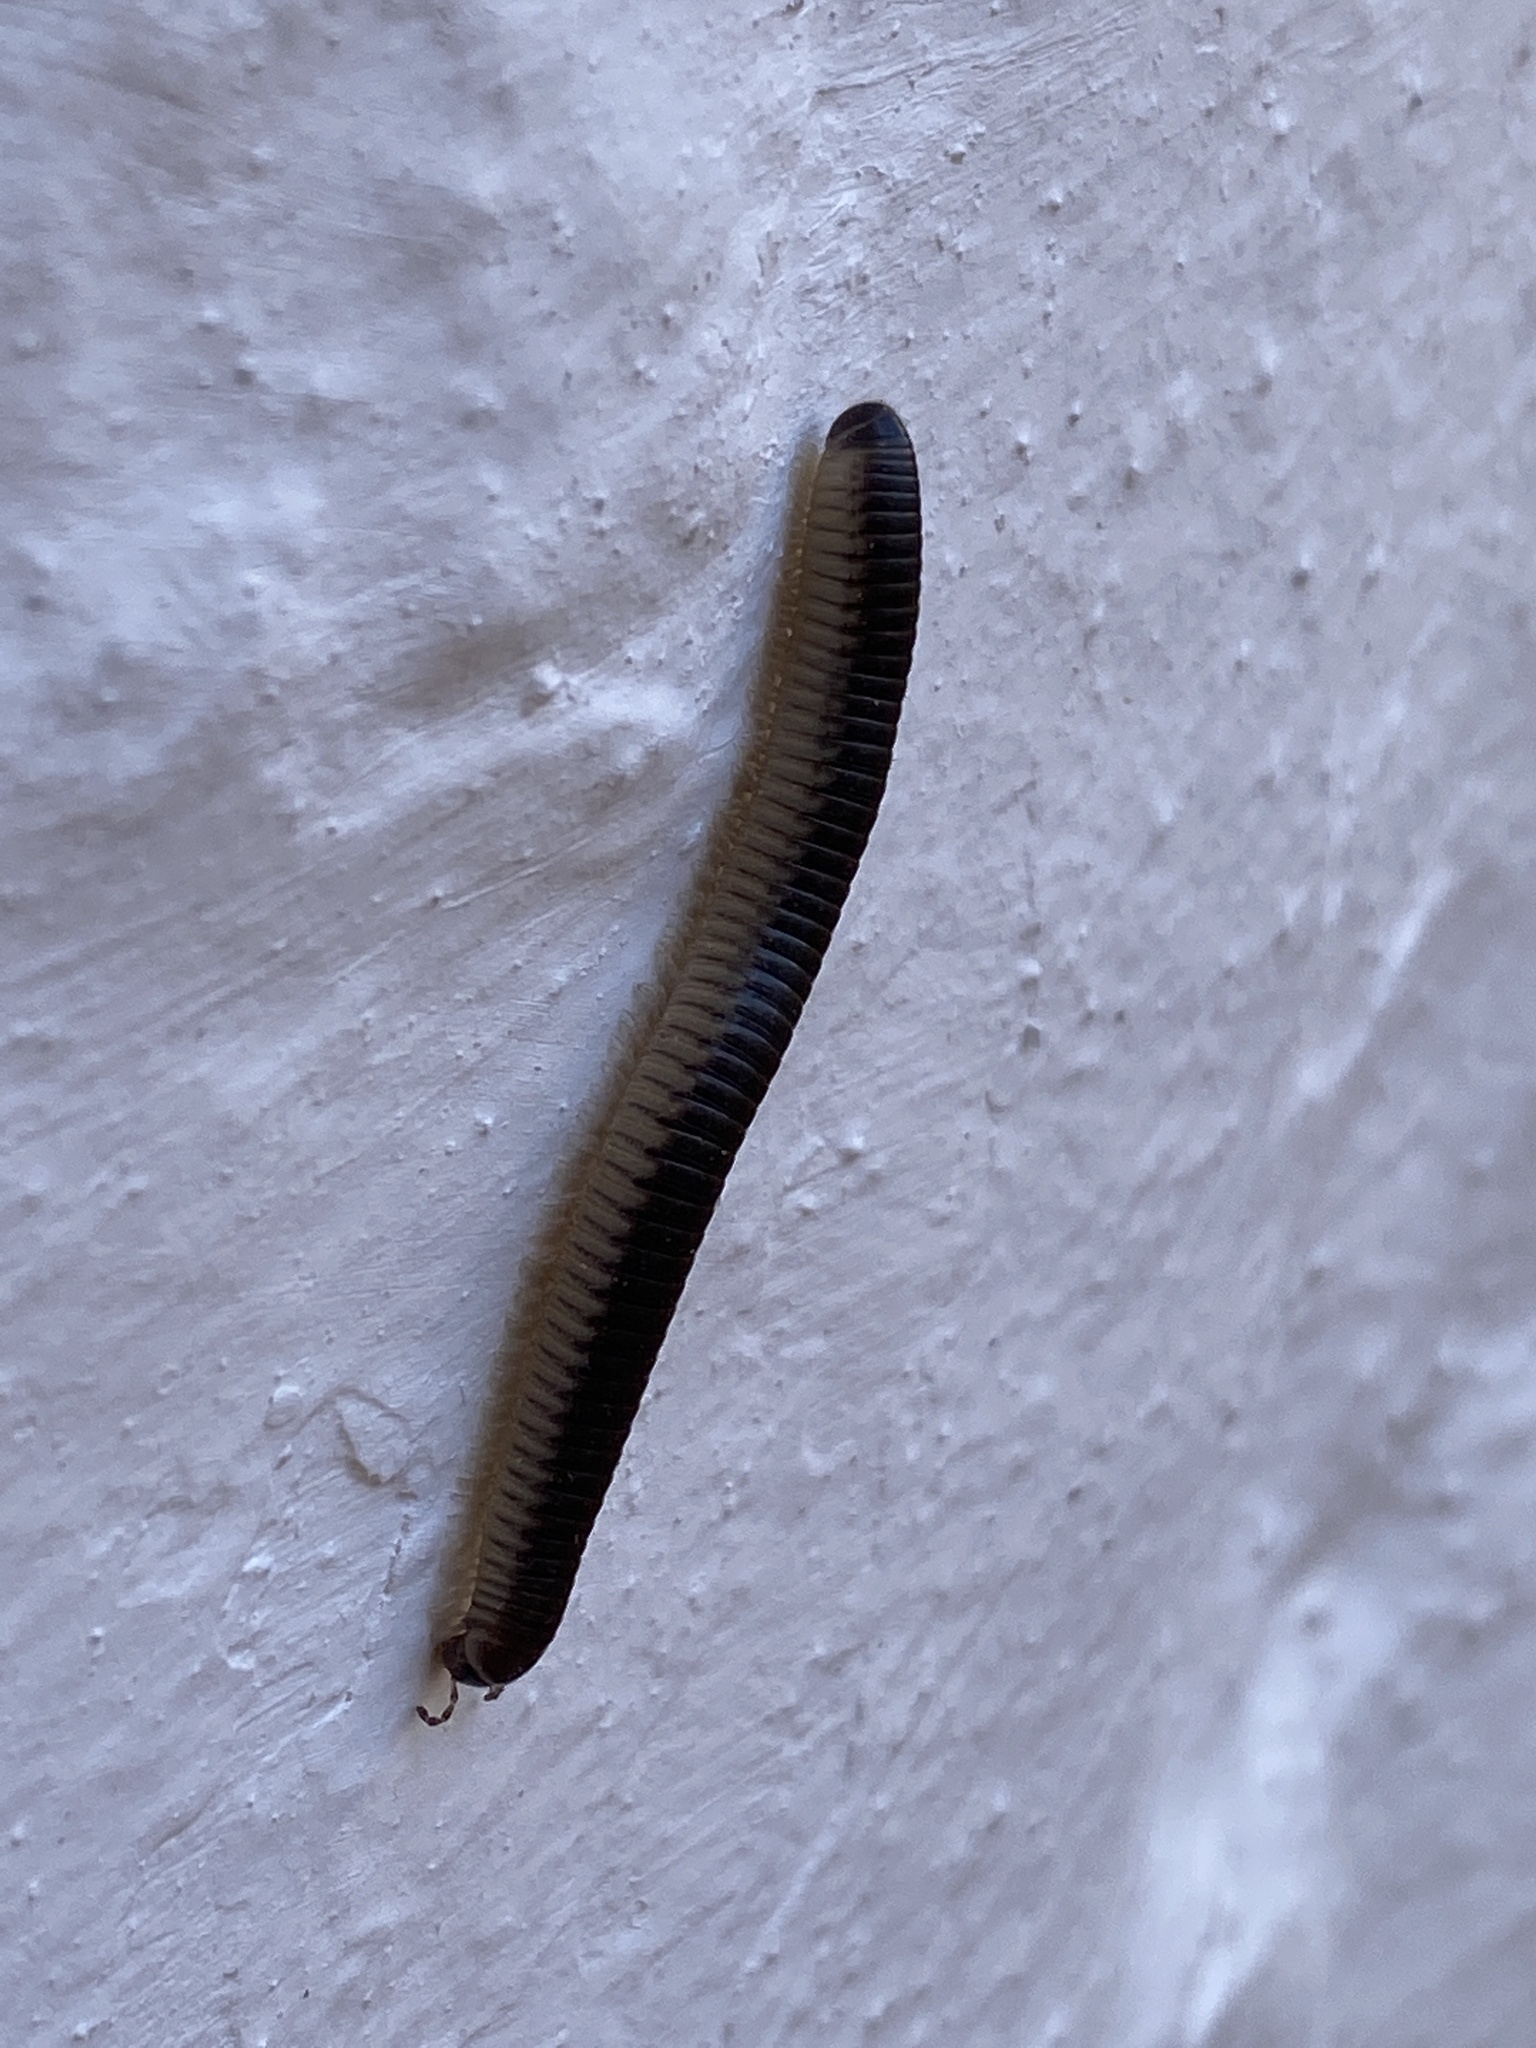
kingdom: Animalia
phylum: Arthropoda
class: Diplopoda
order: Julida
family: Julidae
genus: Pachyiulus
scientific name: Pachyiulus flavipes
